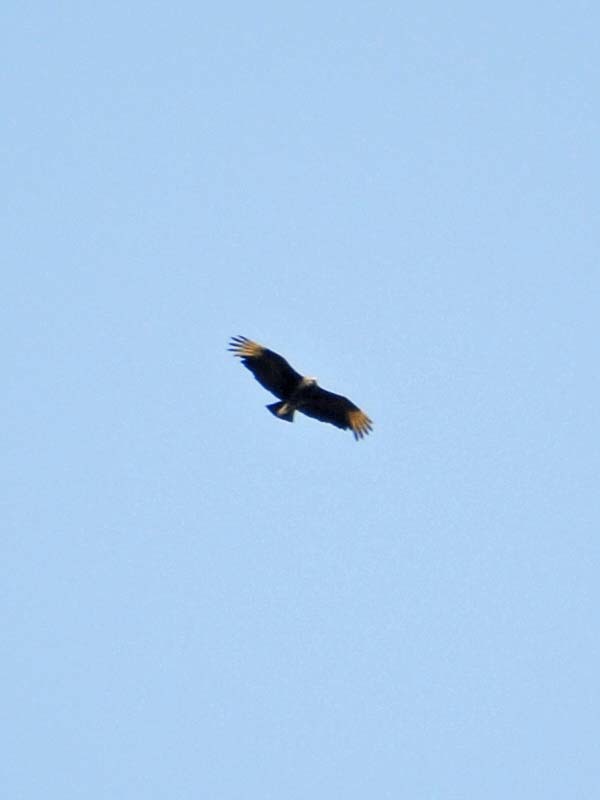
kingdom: Animalia
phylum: Chordata
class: Aves
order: Accipitriformes
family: Cathartidae
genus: Coragyps
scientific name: Coragyps atratus
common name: Black vulture
